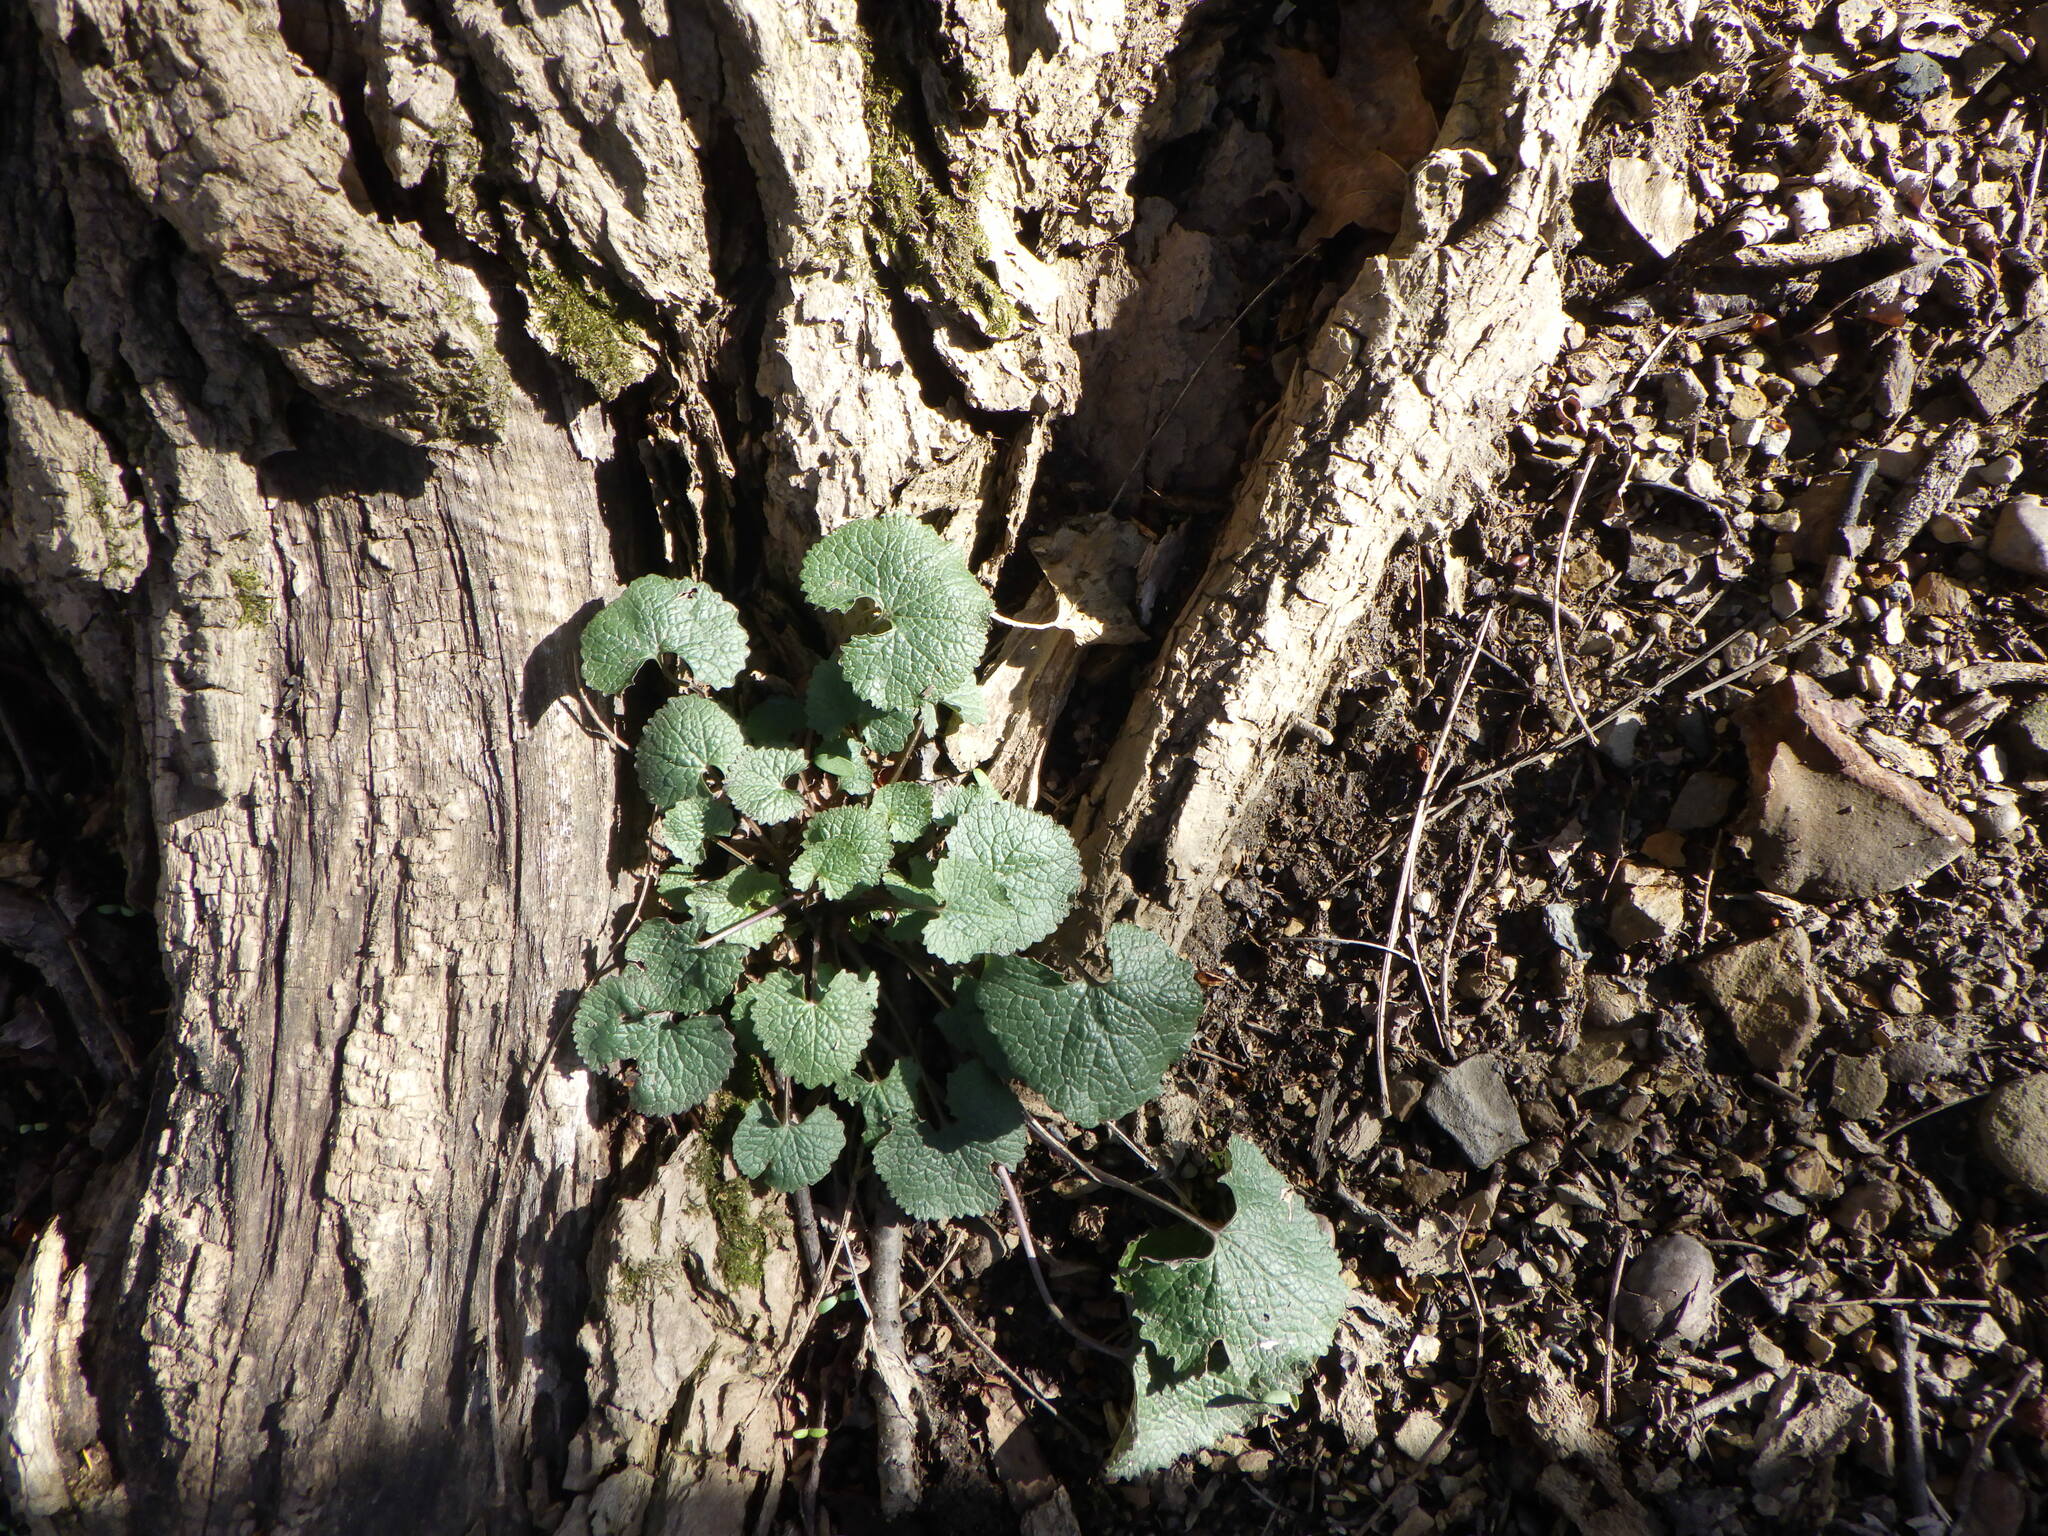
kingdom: Plantae
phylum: Tracheophyta
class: Magnoliopsida
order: Brassicales
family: Brassicaceae
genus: Alliaria
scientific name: Alliaria petiolata
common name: Garlic mustard
